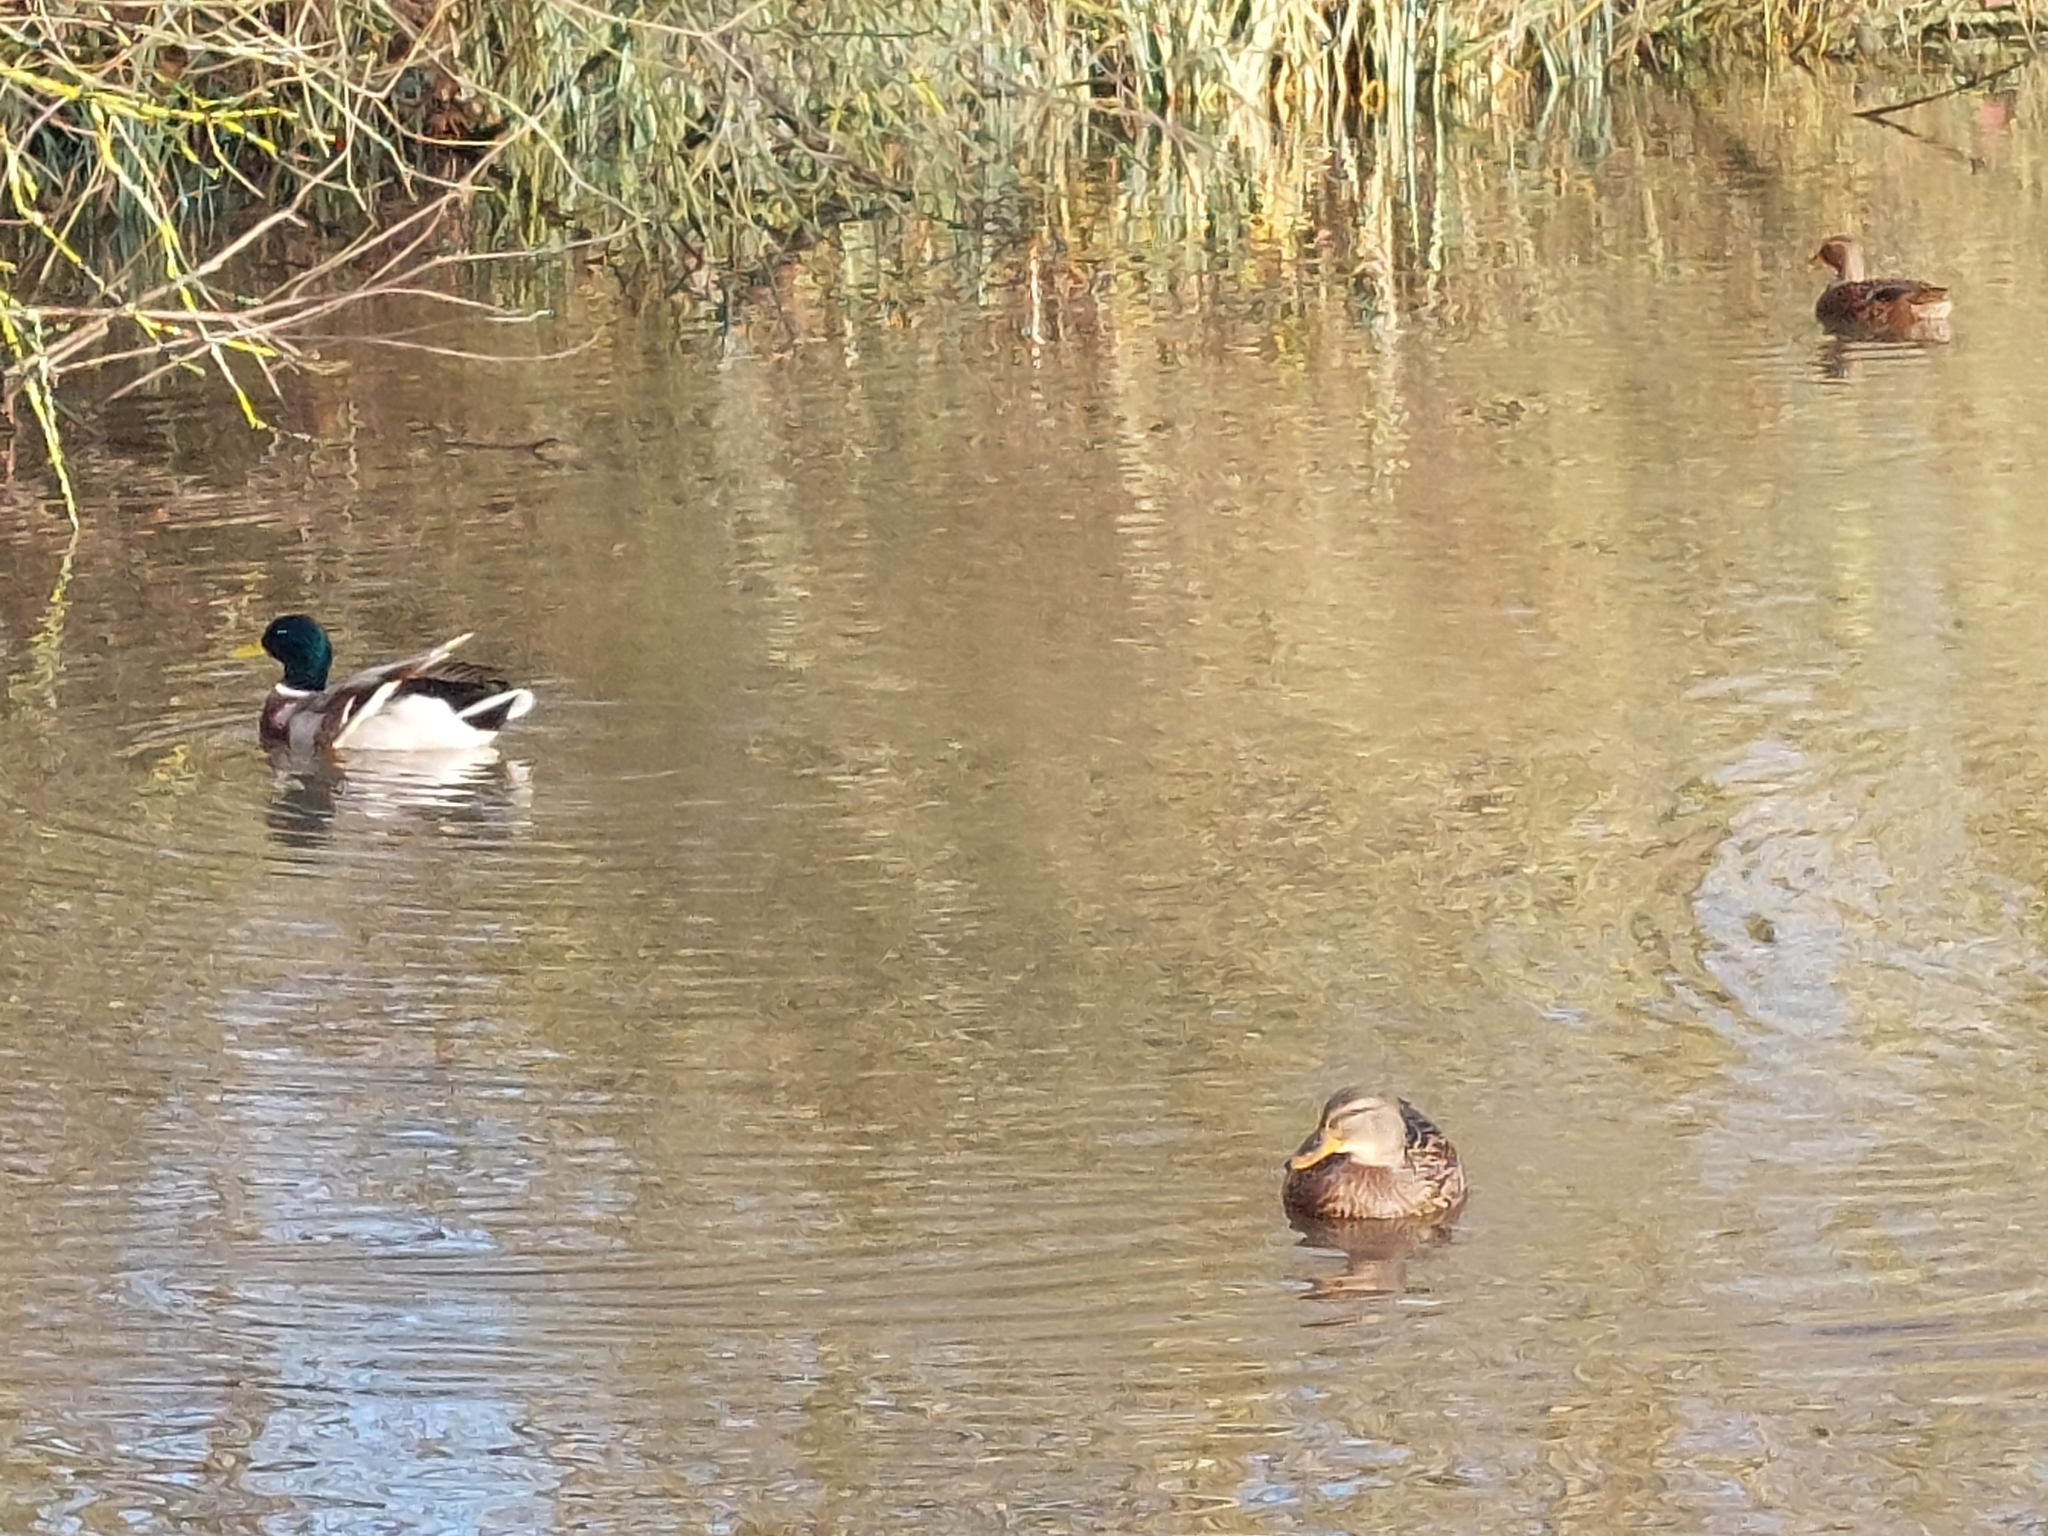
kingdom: Animalia
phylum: Chordata
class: Aves
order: Anseriformes
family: Anatidae
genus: Anas
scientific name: Anas platyrhynchos
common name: Mallard
